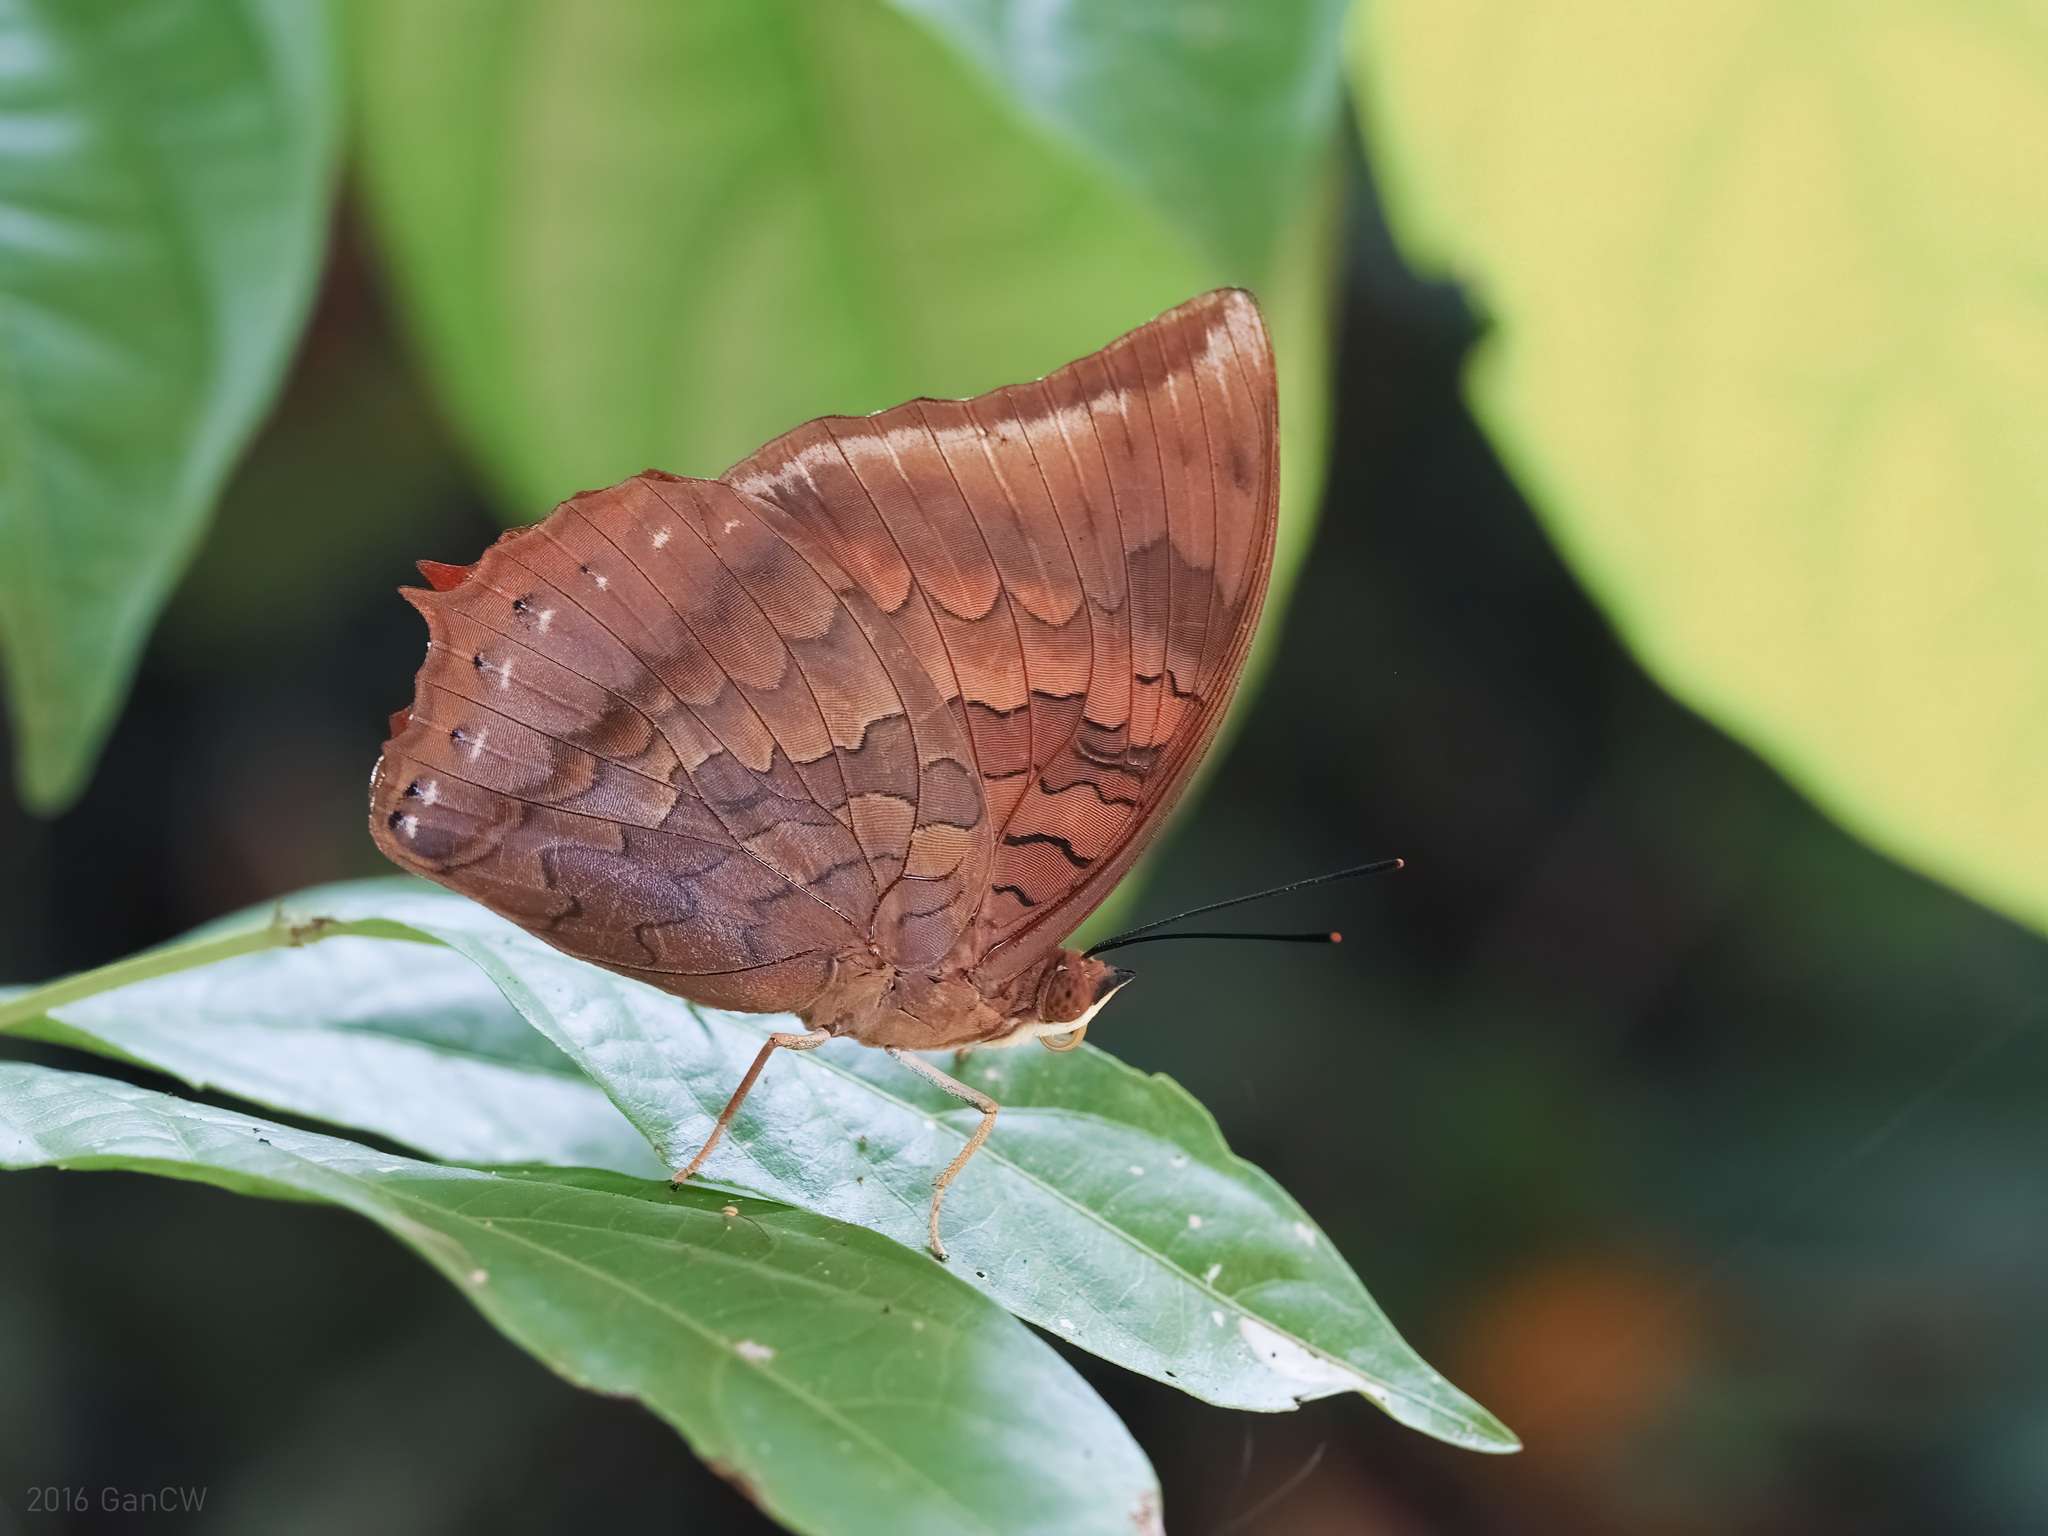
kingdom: Animalia
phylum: Arthropoda
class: Insecta
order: Lepidoptera
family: Nymphalidae
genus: Charaxes
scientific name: Charaxes bernardus
